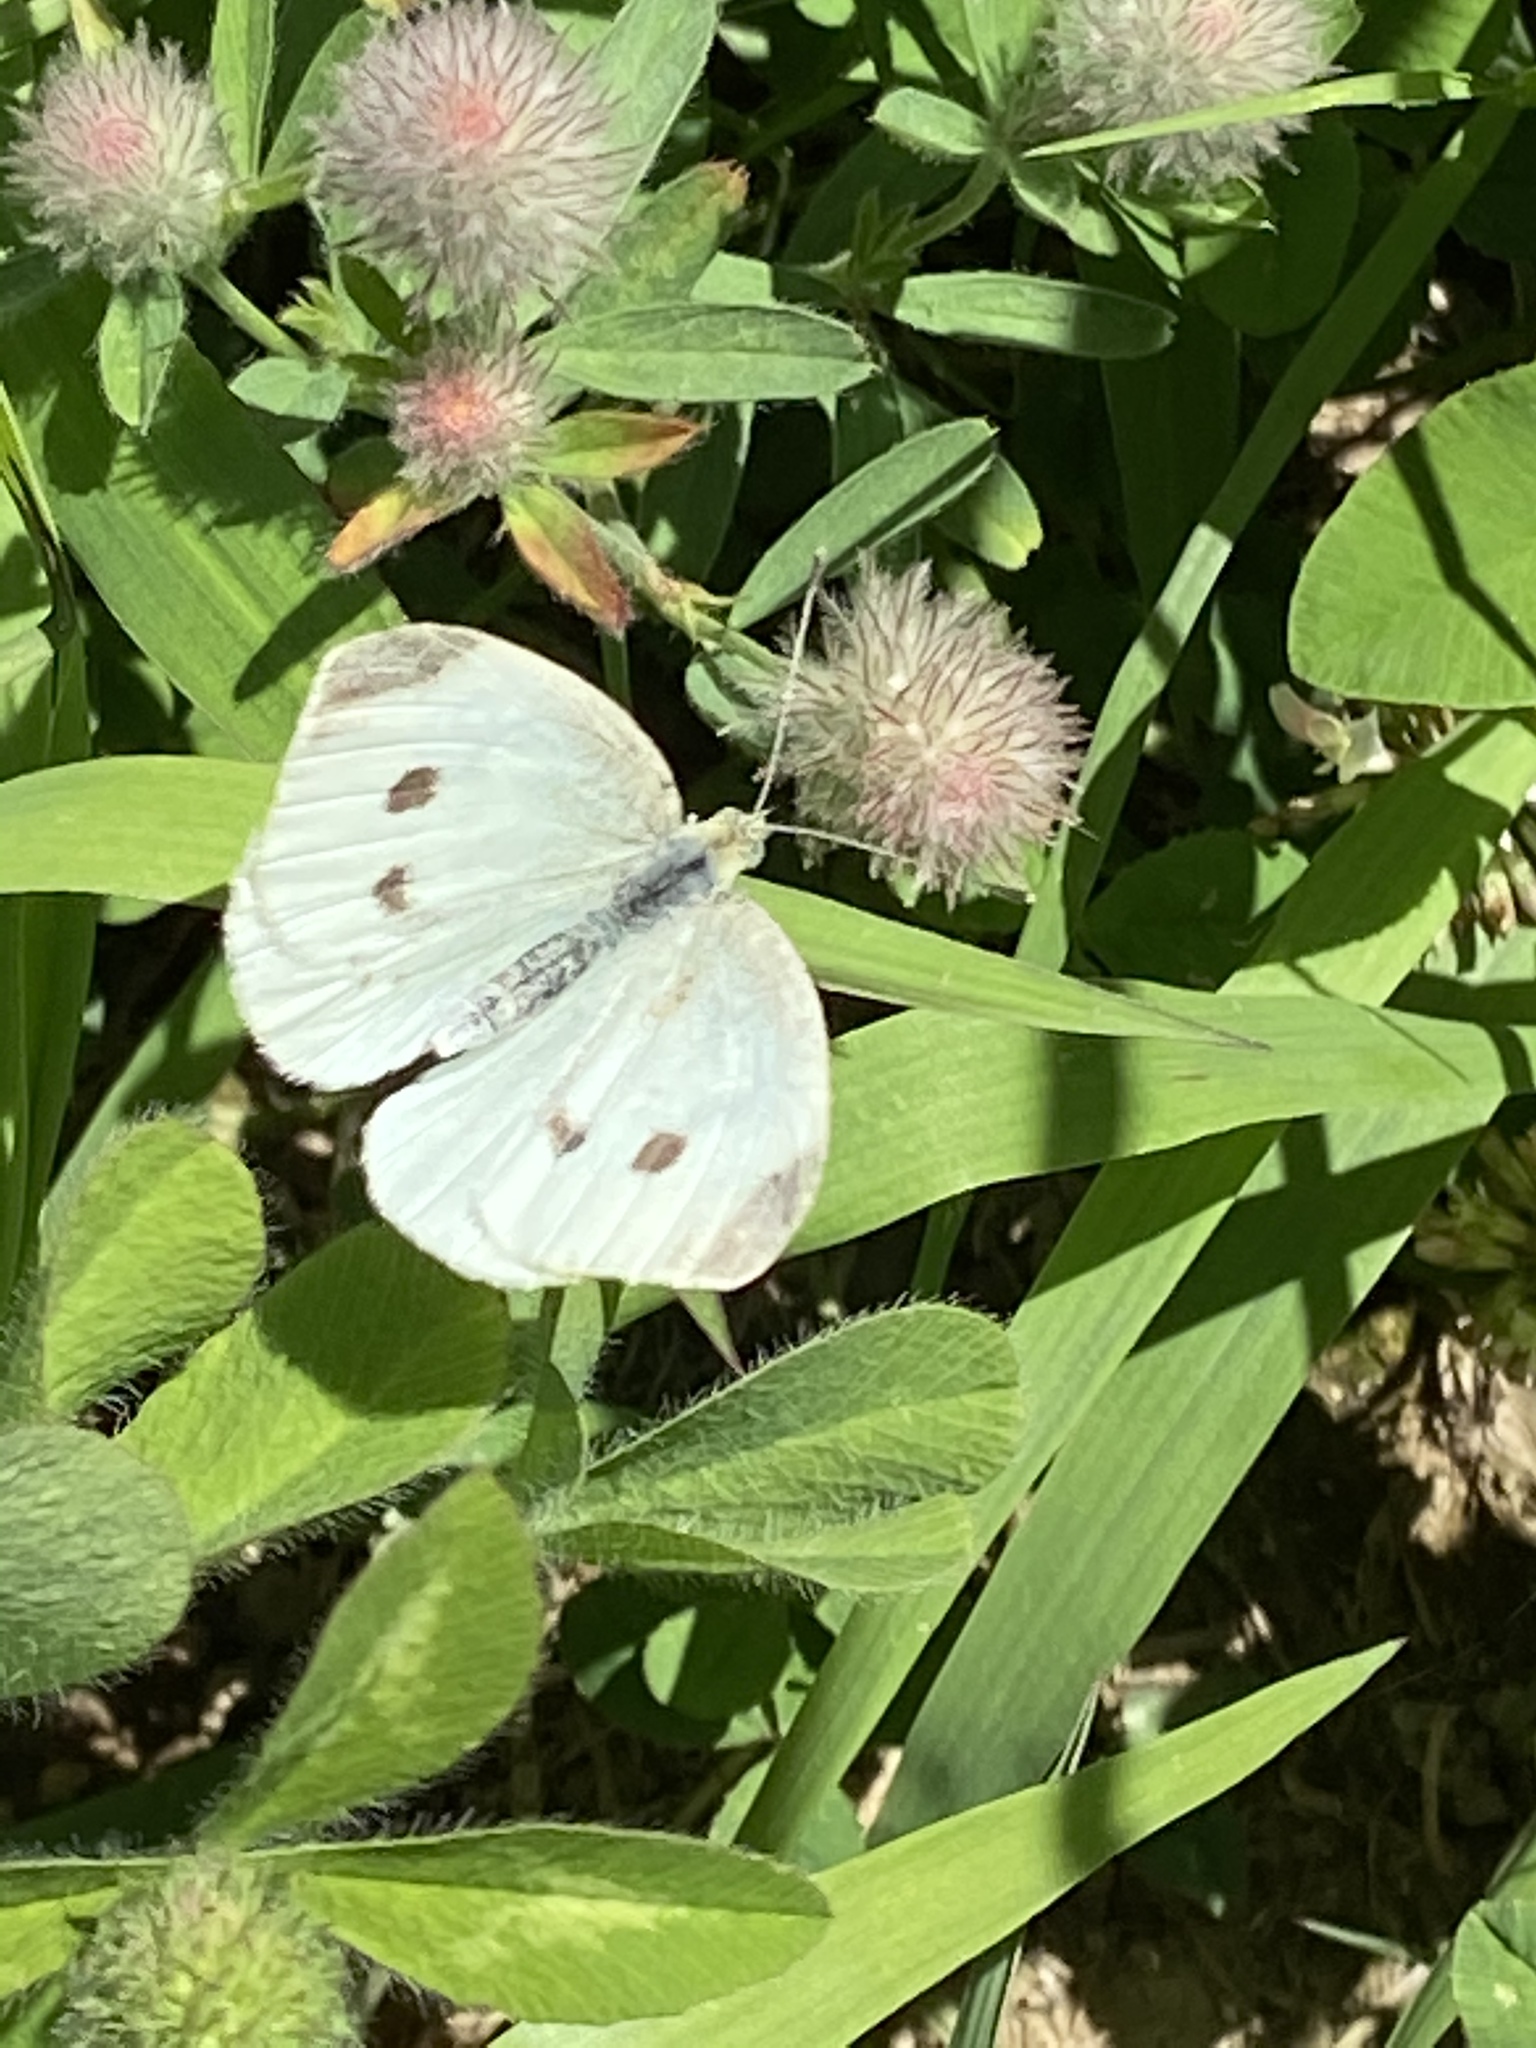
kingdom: Animalia
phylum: Arthropoda
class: Insecta
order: Lepidoptera
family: Pieridae
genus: Pieris
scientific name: Pieris rapae
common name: Small white
